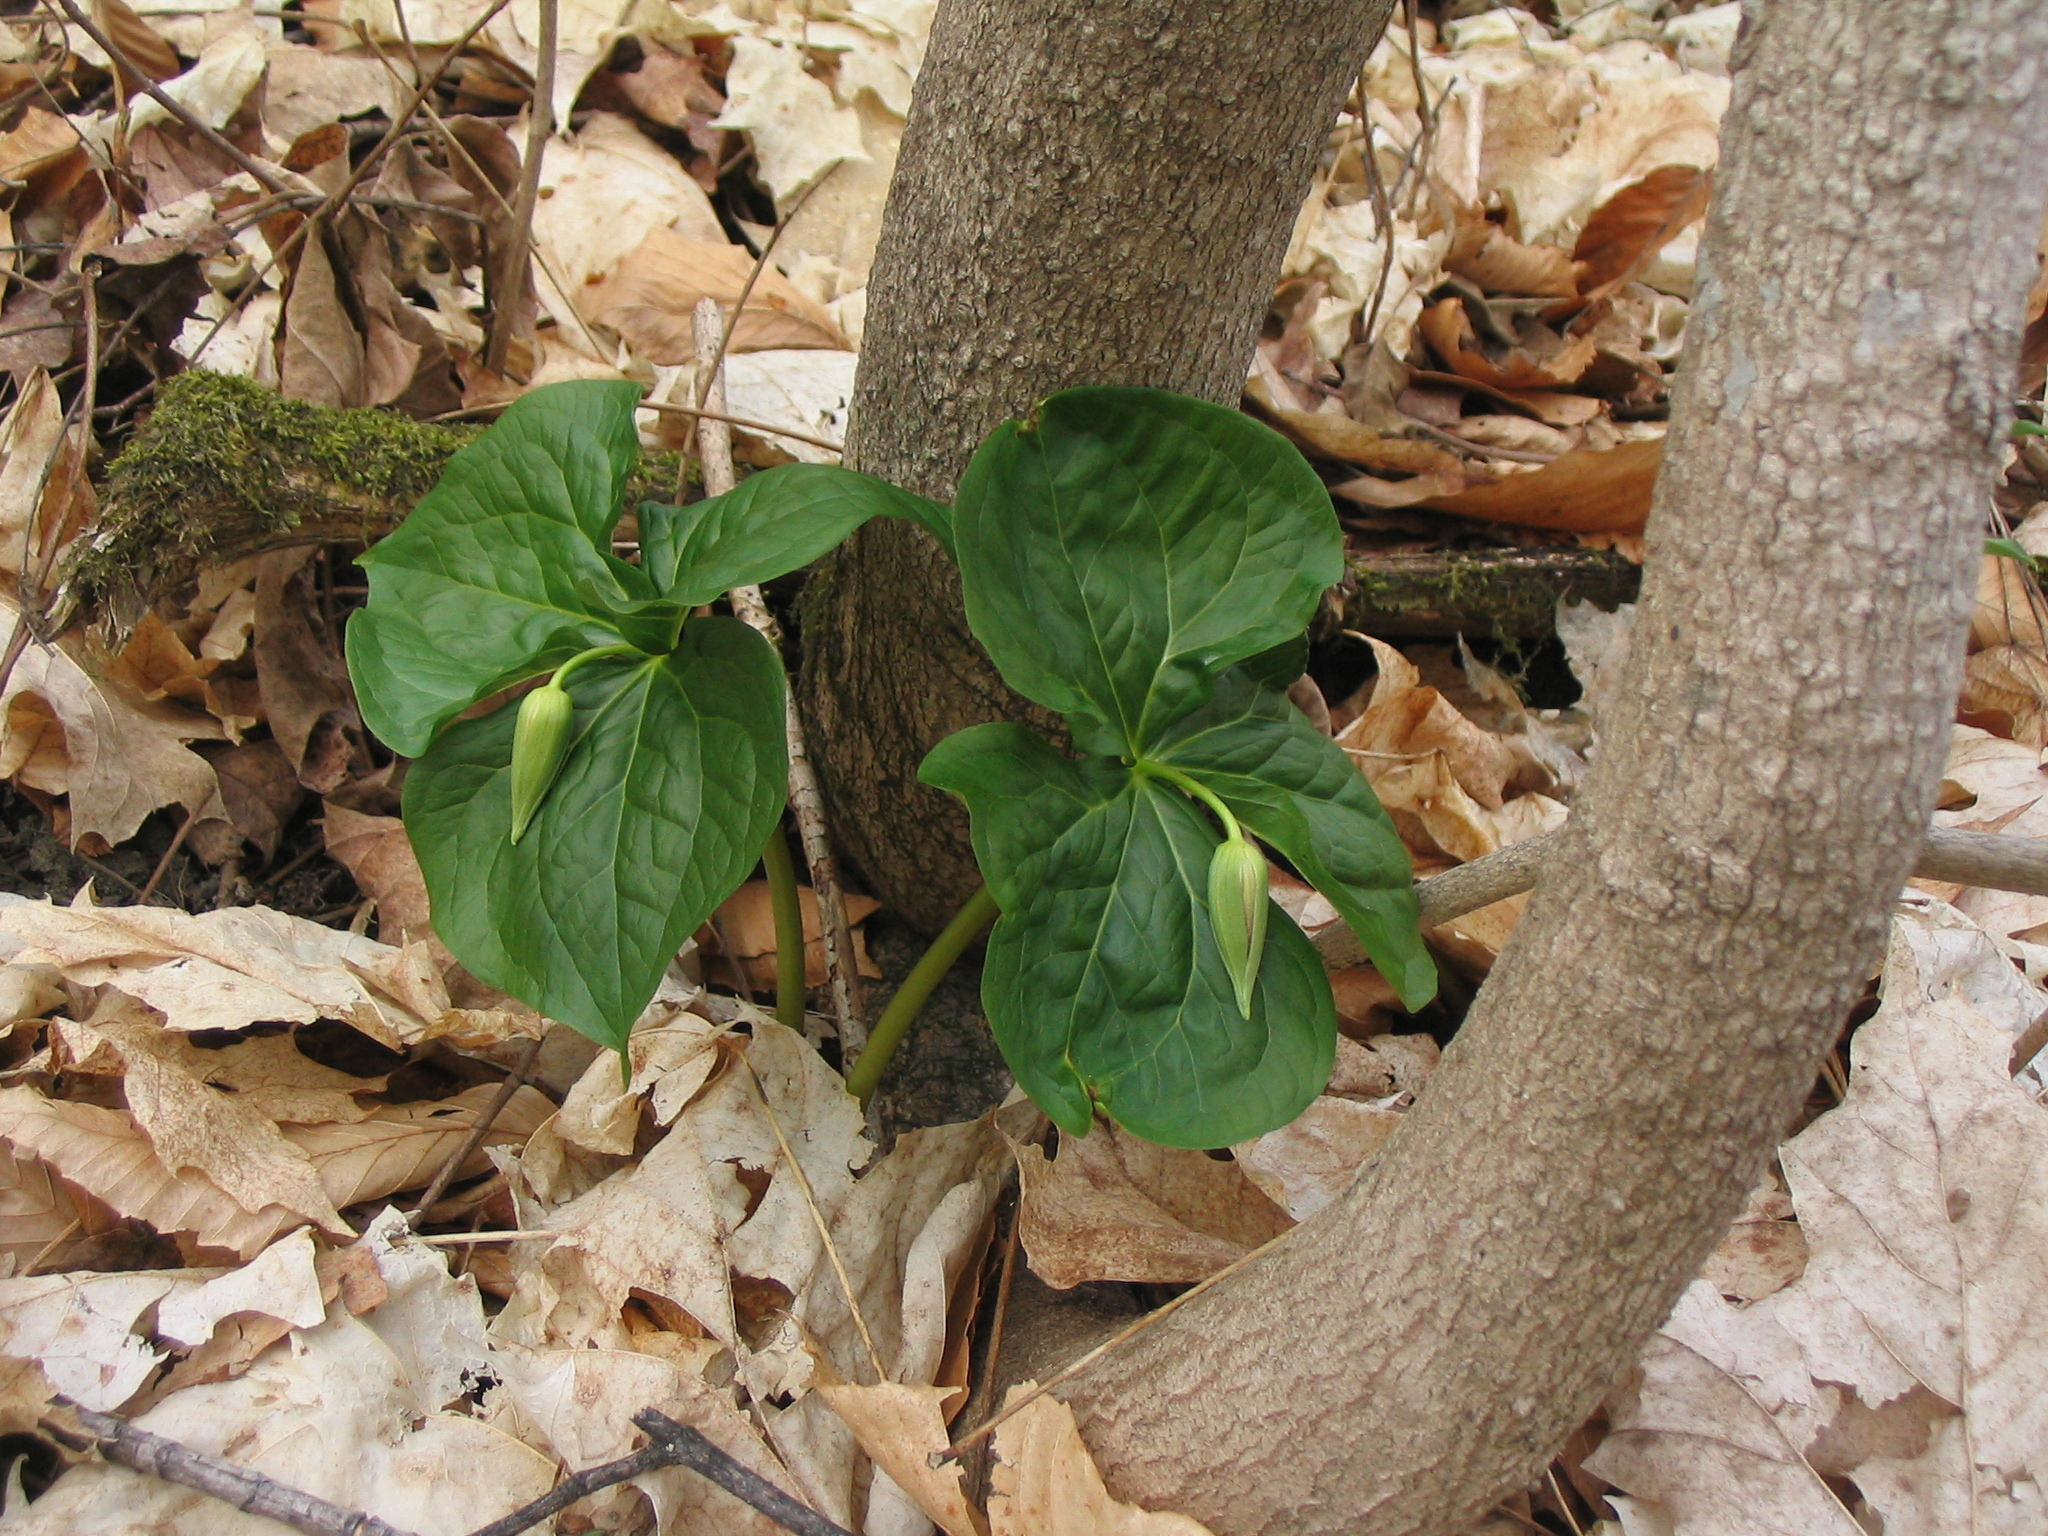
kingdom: Plantae
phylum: Tracheophyta
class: Liliopsida
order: Liliales
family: Melanthiaceae
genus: Trillium
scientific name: Trillium erectum
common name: Purple trillium
